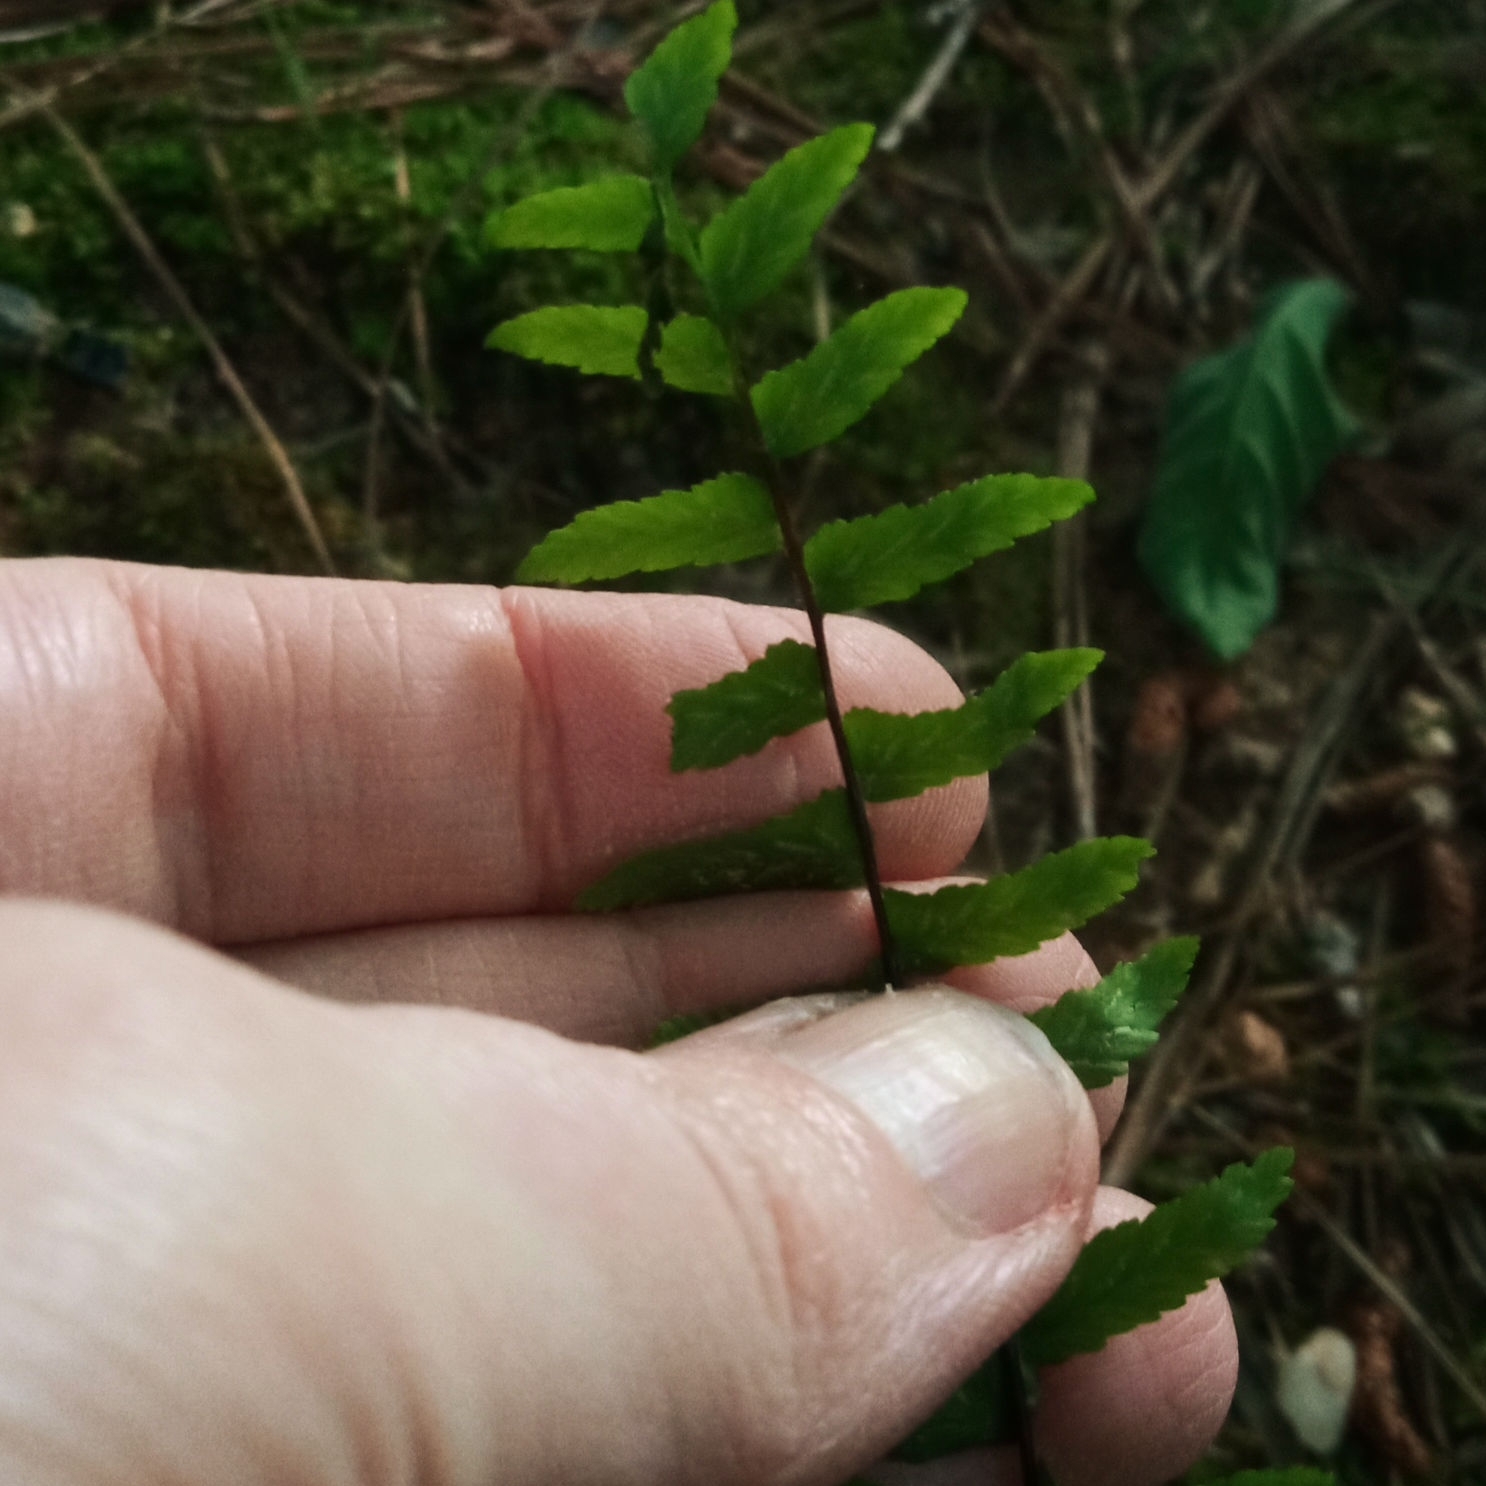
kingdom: Plantae
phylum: Tracheophyta
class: Polypodiopsida
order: Polypodiales
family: Aspleniaceae
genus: Asplenium
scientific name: Asplenium platyneuron
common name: Ebony spleenwort
